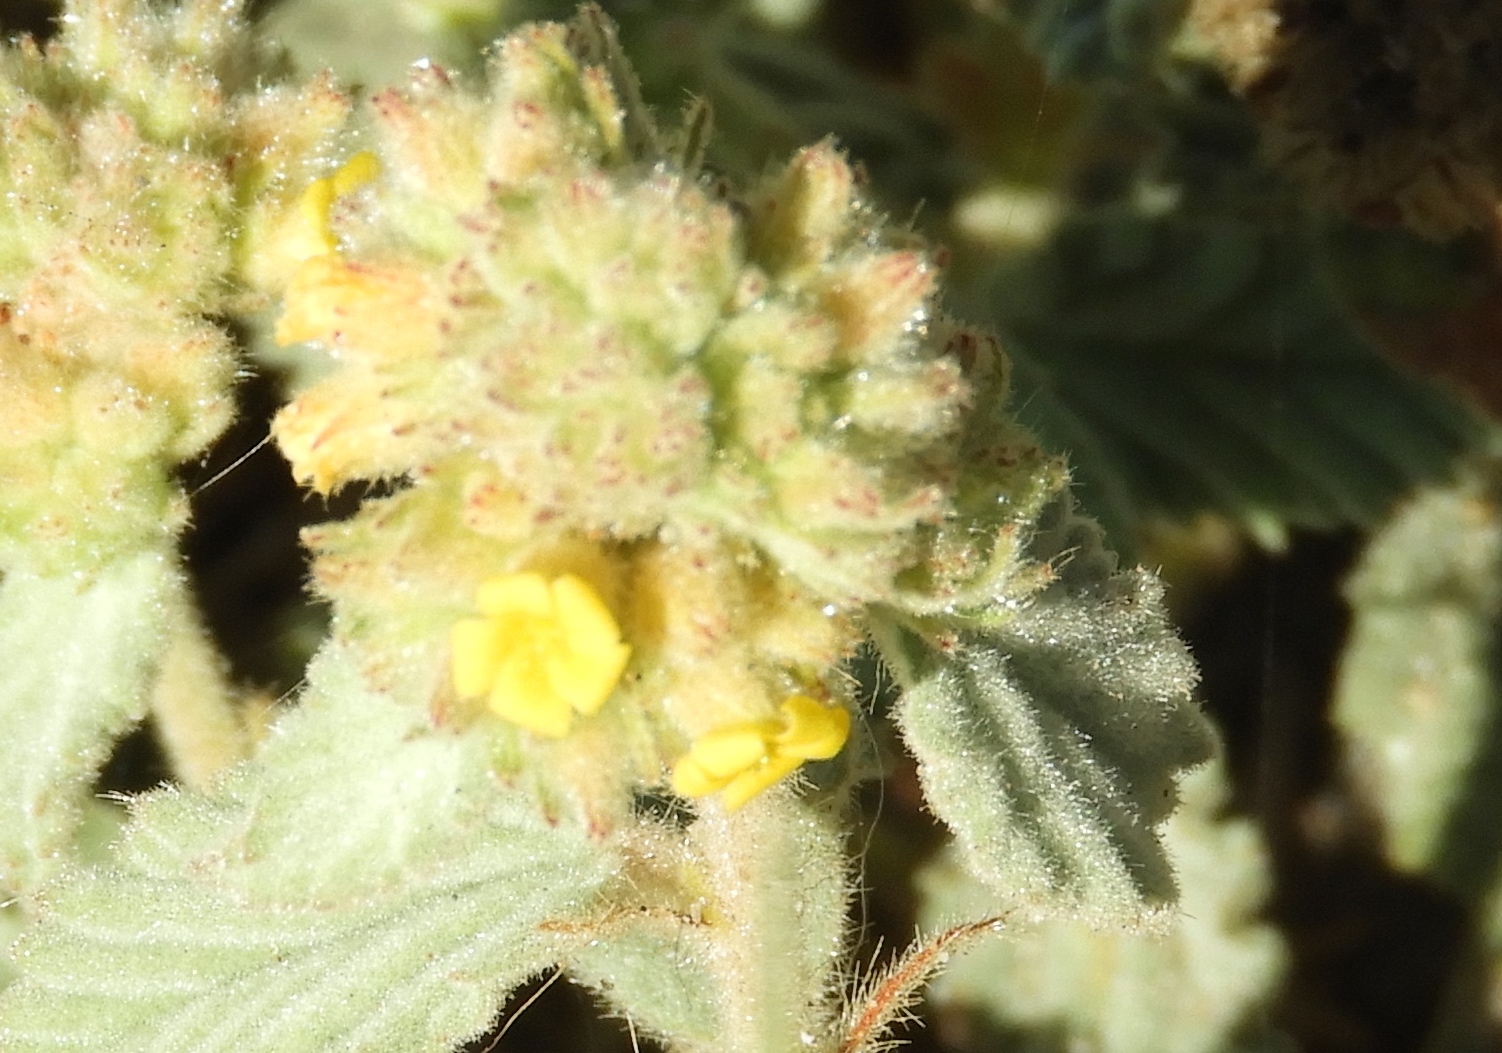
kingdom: Plantae
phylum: Tracheophyta
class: Magnoliopsida
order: Malvales
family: Malvaceae
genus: Waltheria
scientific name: Waltheria indica
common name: Leather-coat
